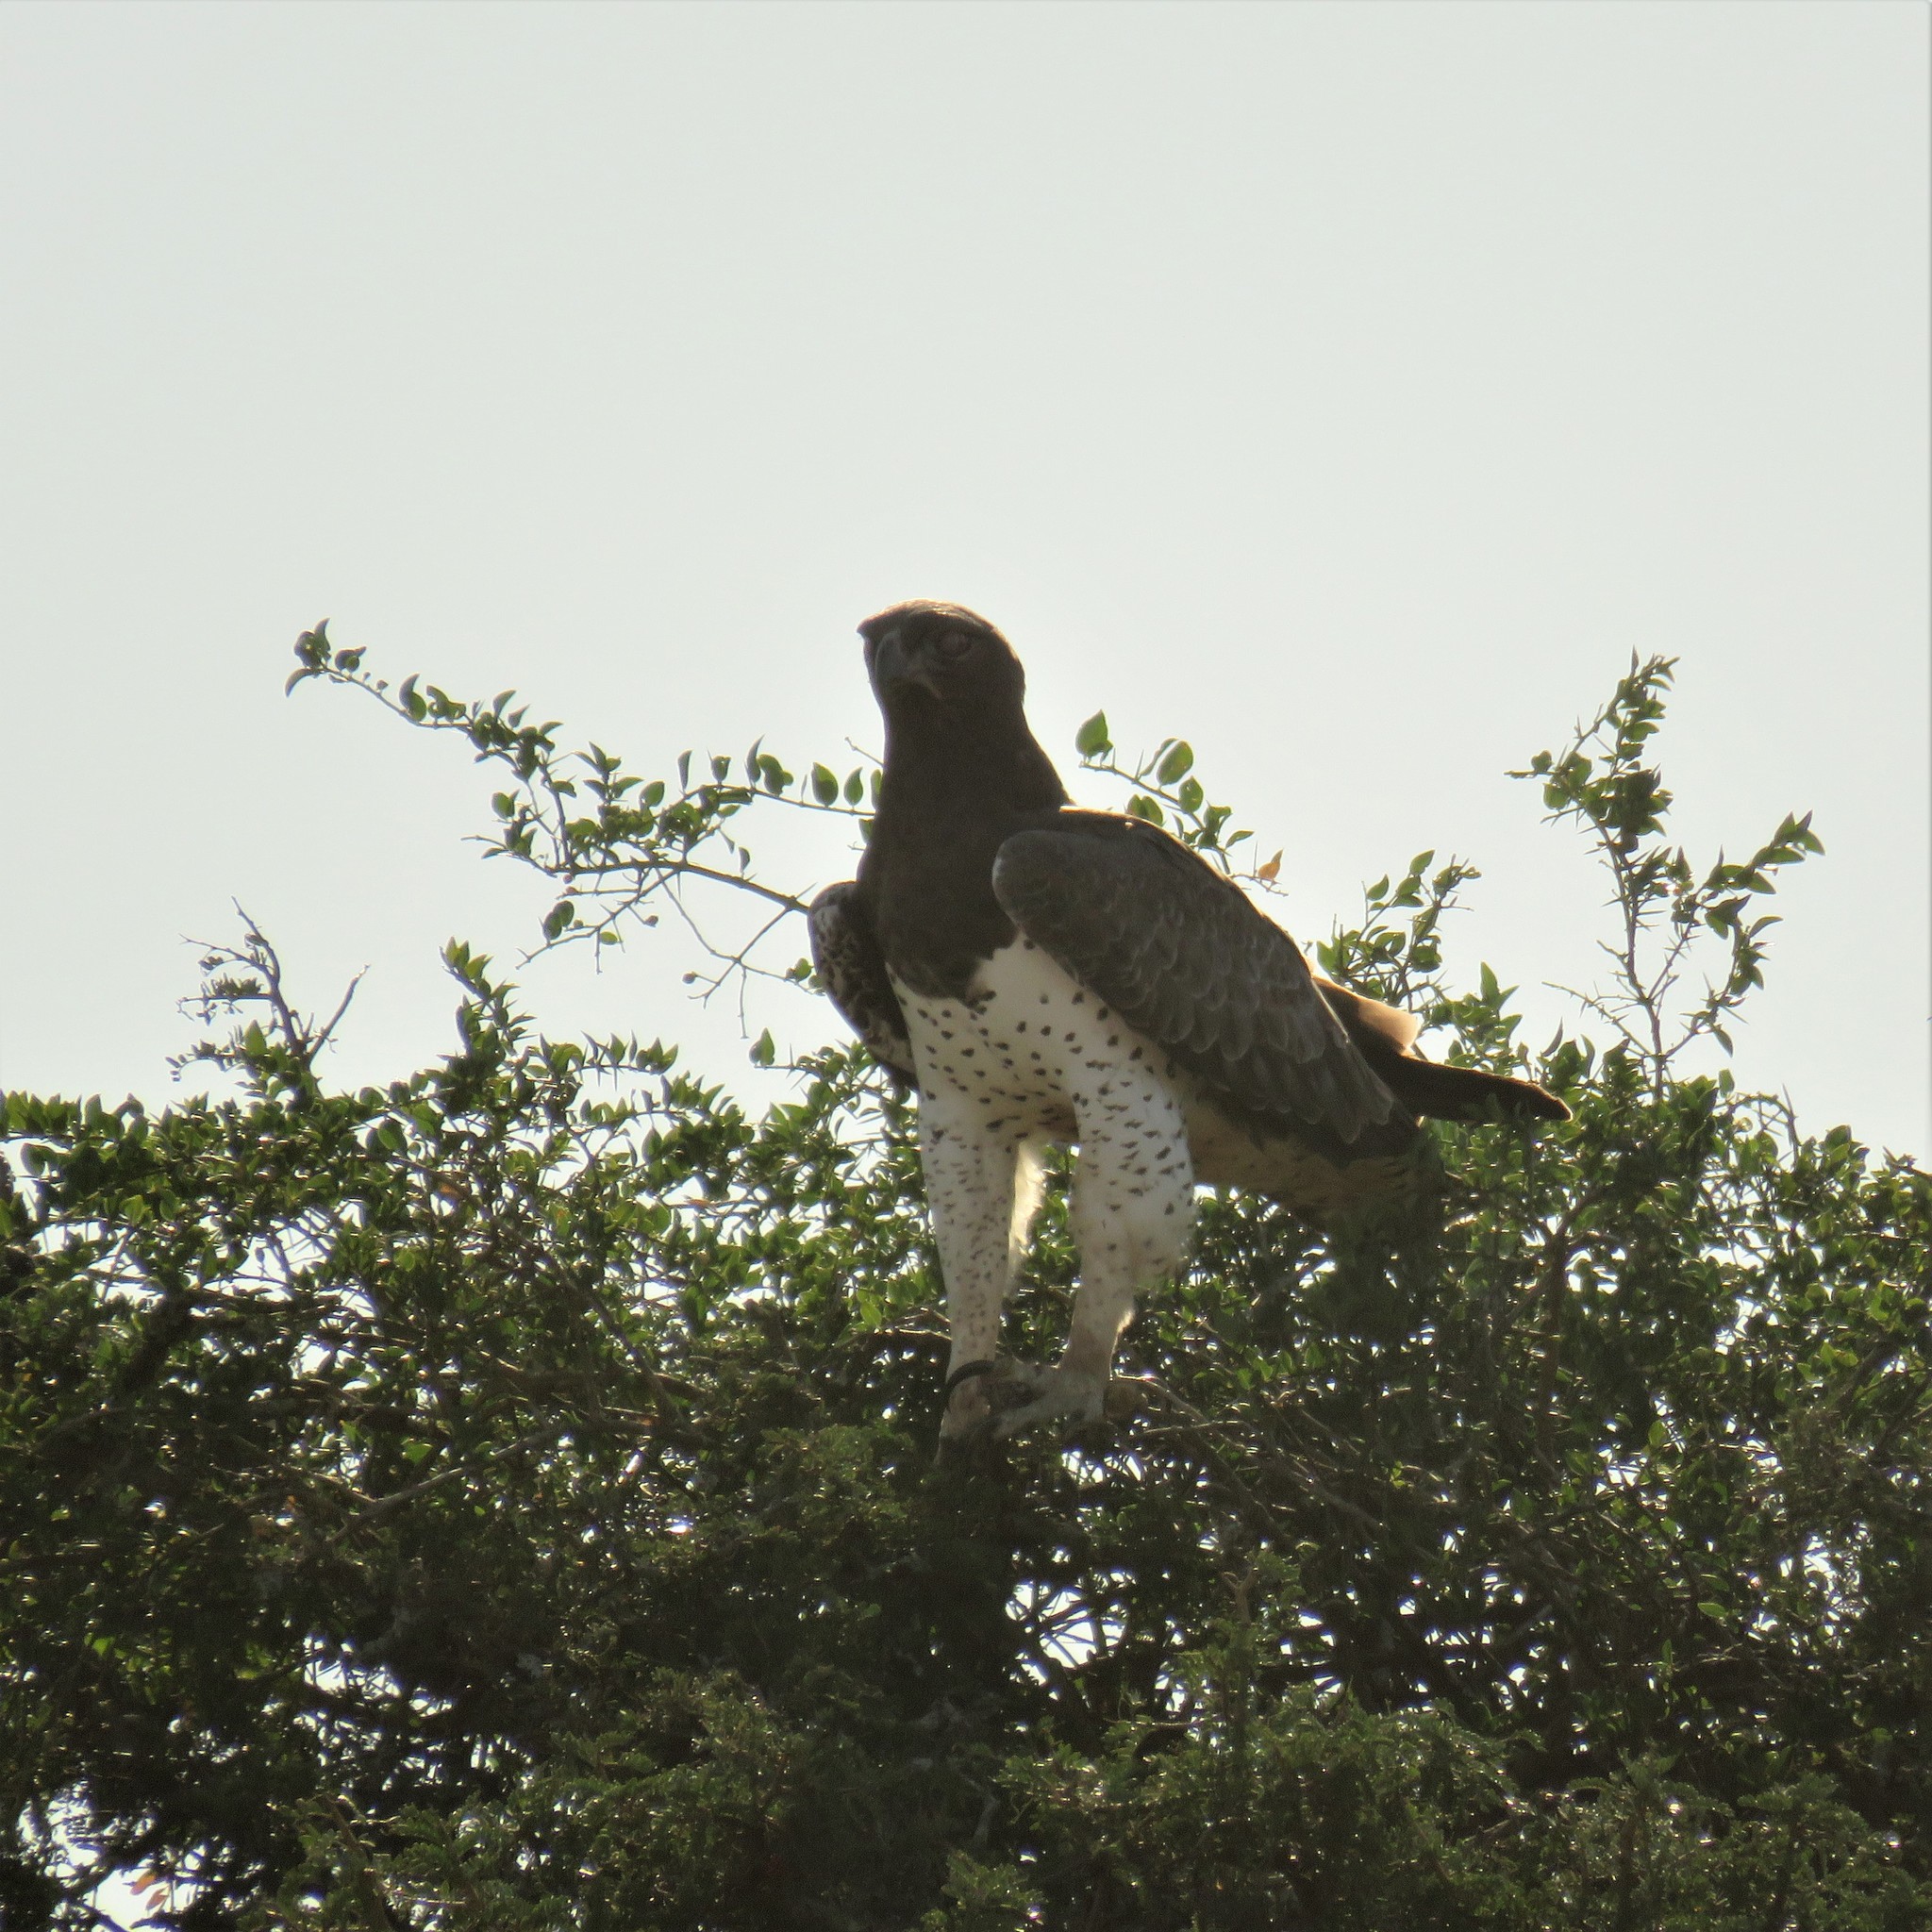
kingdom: Animalia
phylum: Chordata
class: Aves
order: Accipitriformes
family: Accipitridae
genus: Polemaetus
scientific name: Polemaetus bellicosus
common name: Martial eagle
